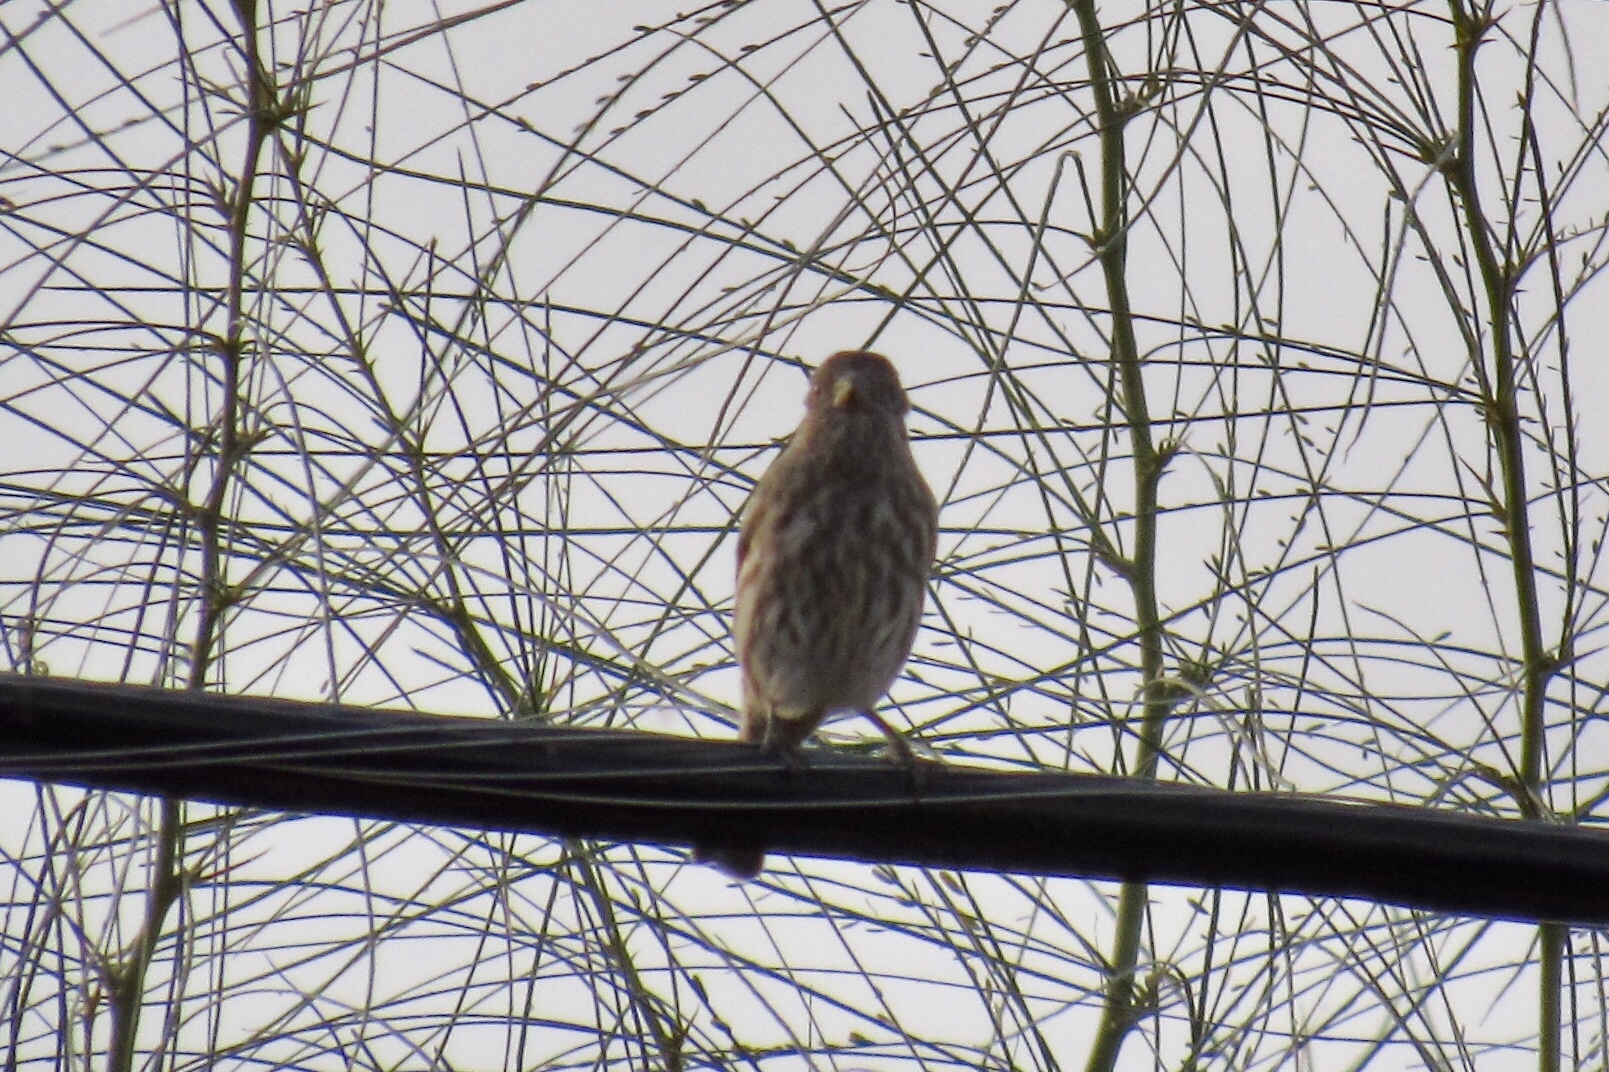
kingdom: Animalia
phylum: Chordata
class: Aves
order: Passeriformes
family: Fringillidae
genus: Haemorhous
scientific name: Haemorhous mexicanus
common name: House finch
